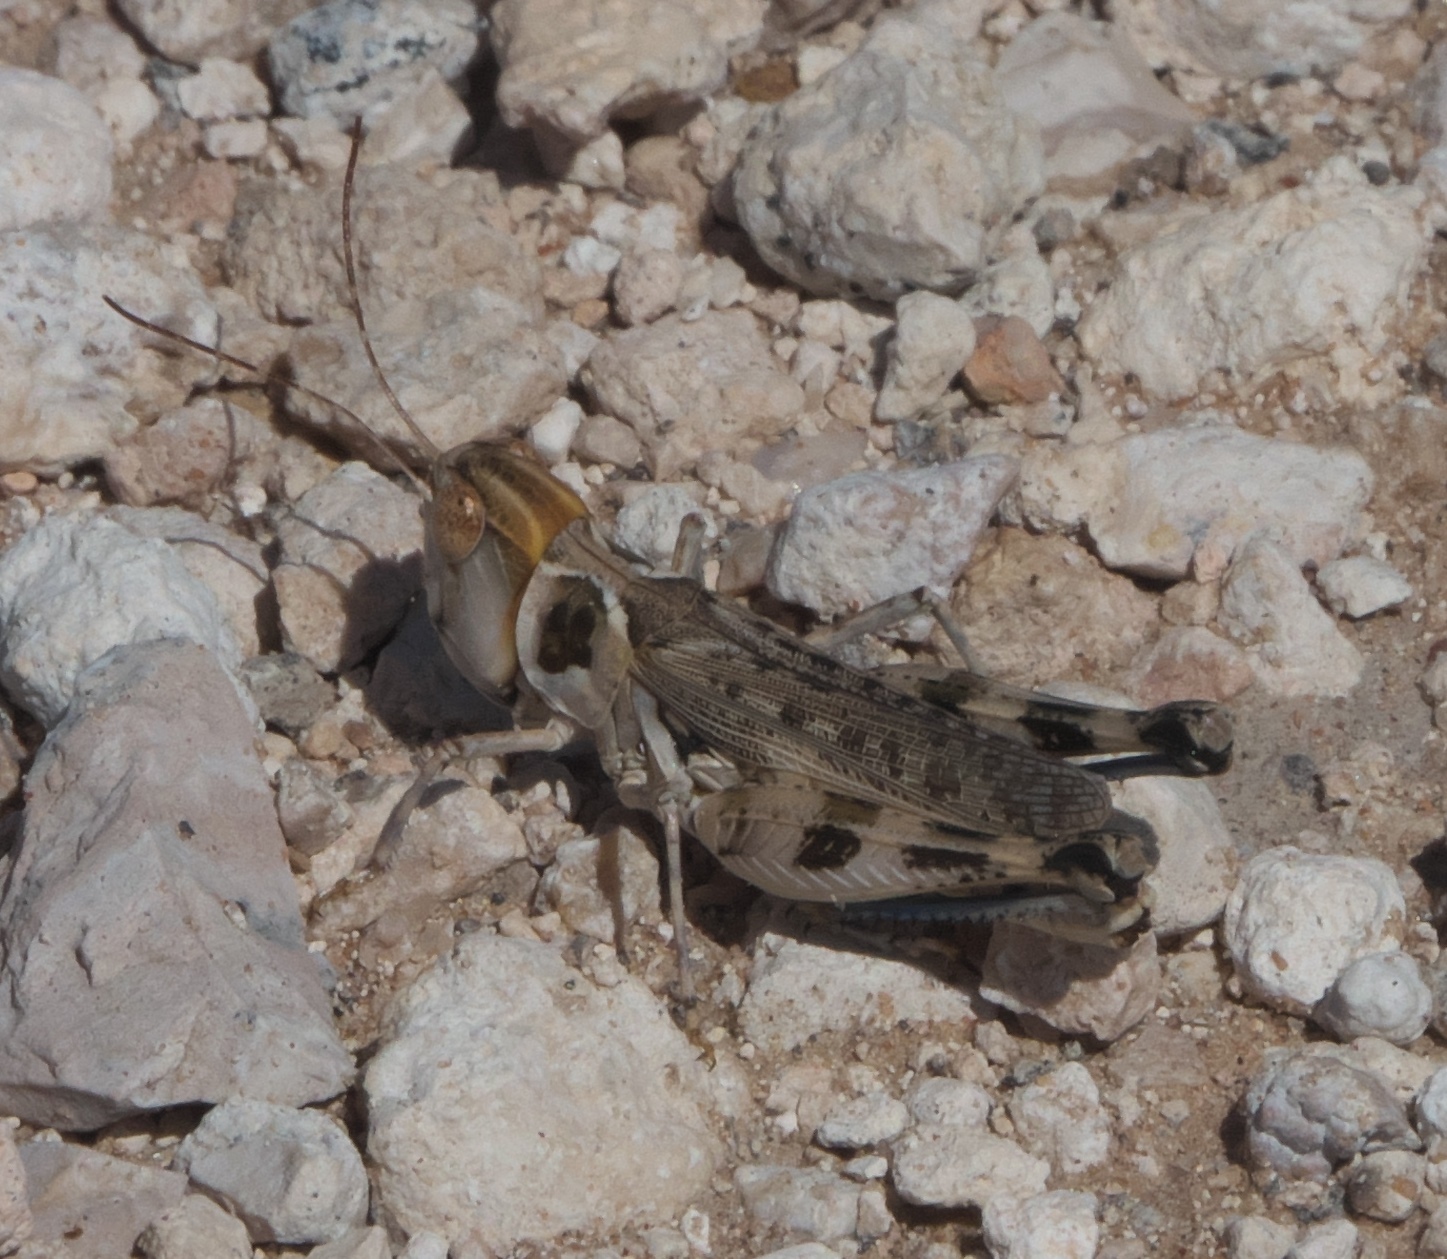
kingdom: Animalia
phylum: Arthropoda
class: Insecta
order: Orthoptera
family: Acrididae
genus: Aulocara
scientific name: Aulocara femoratum
